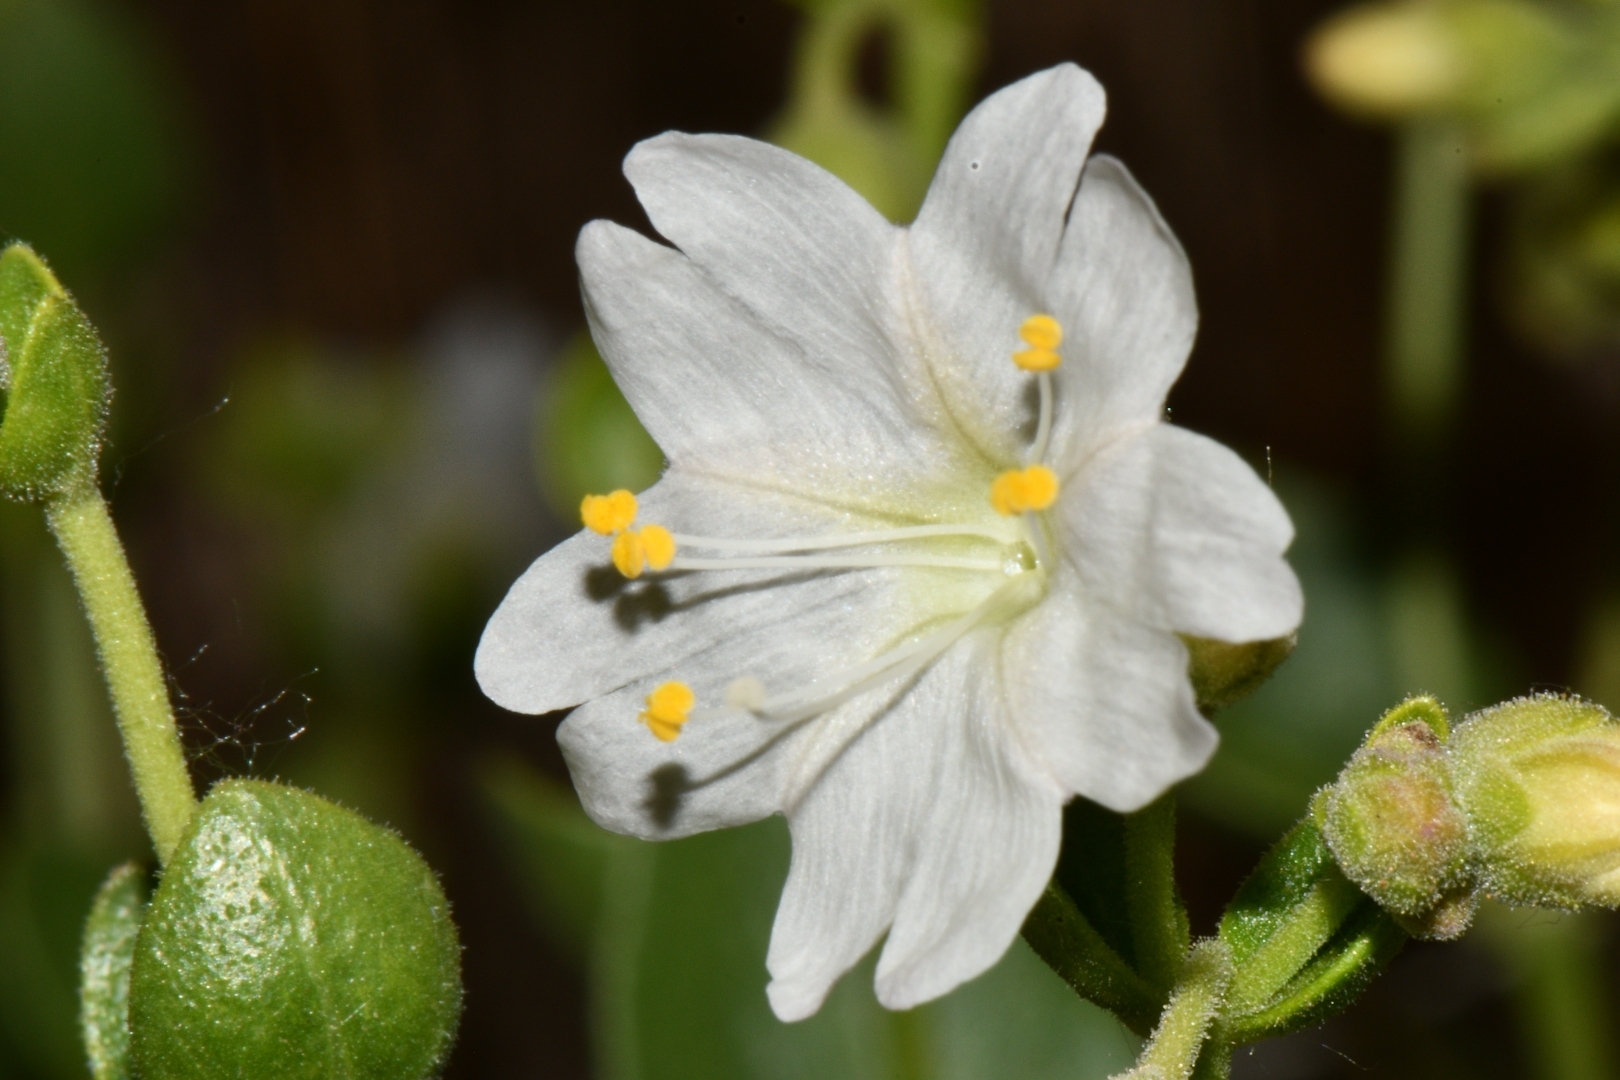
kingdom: Plantae
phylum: Tracheophyta
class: Magnoliopsida
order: Caryophyllales
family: Nyctaginaceae
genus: Mirabilis
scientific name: Mirabilis laevis
